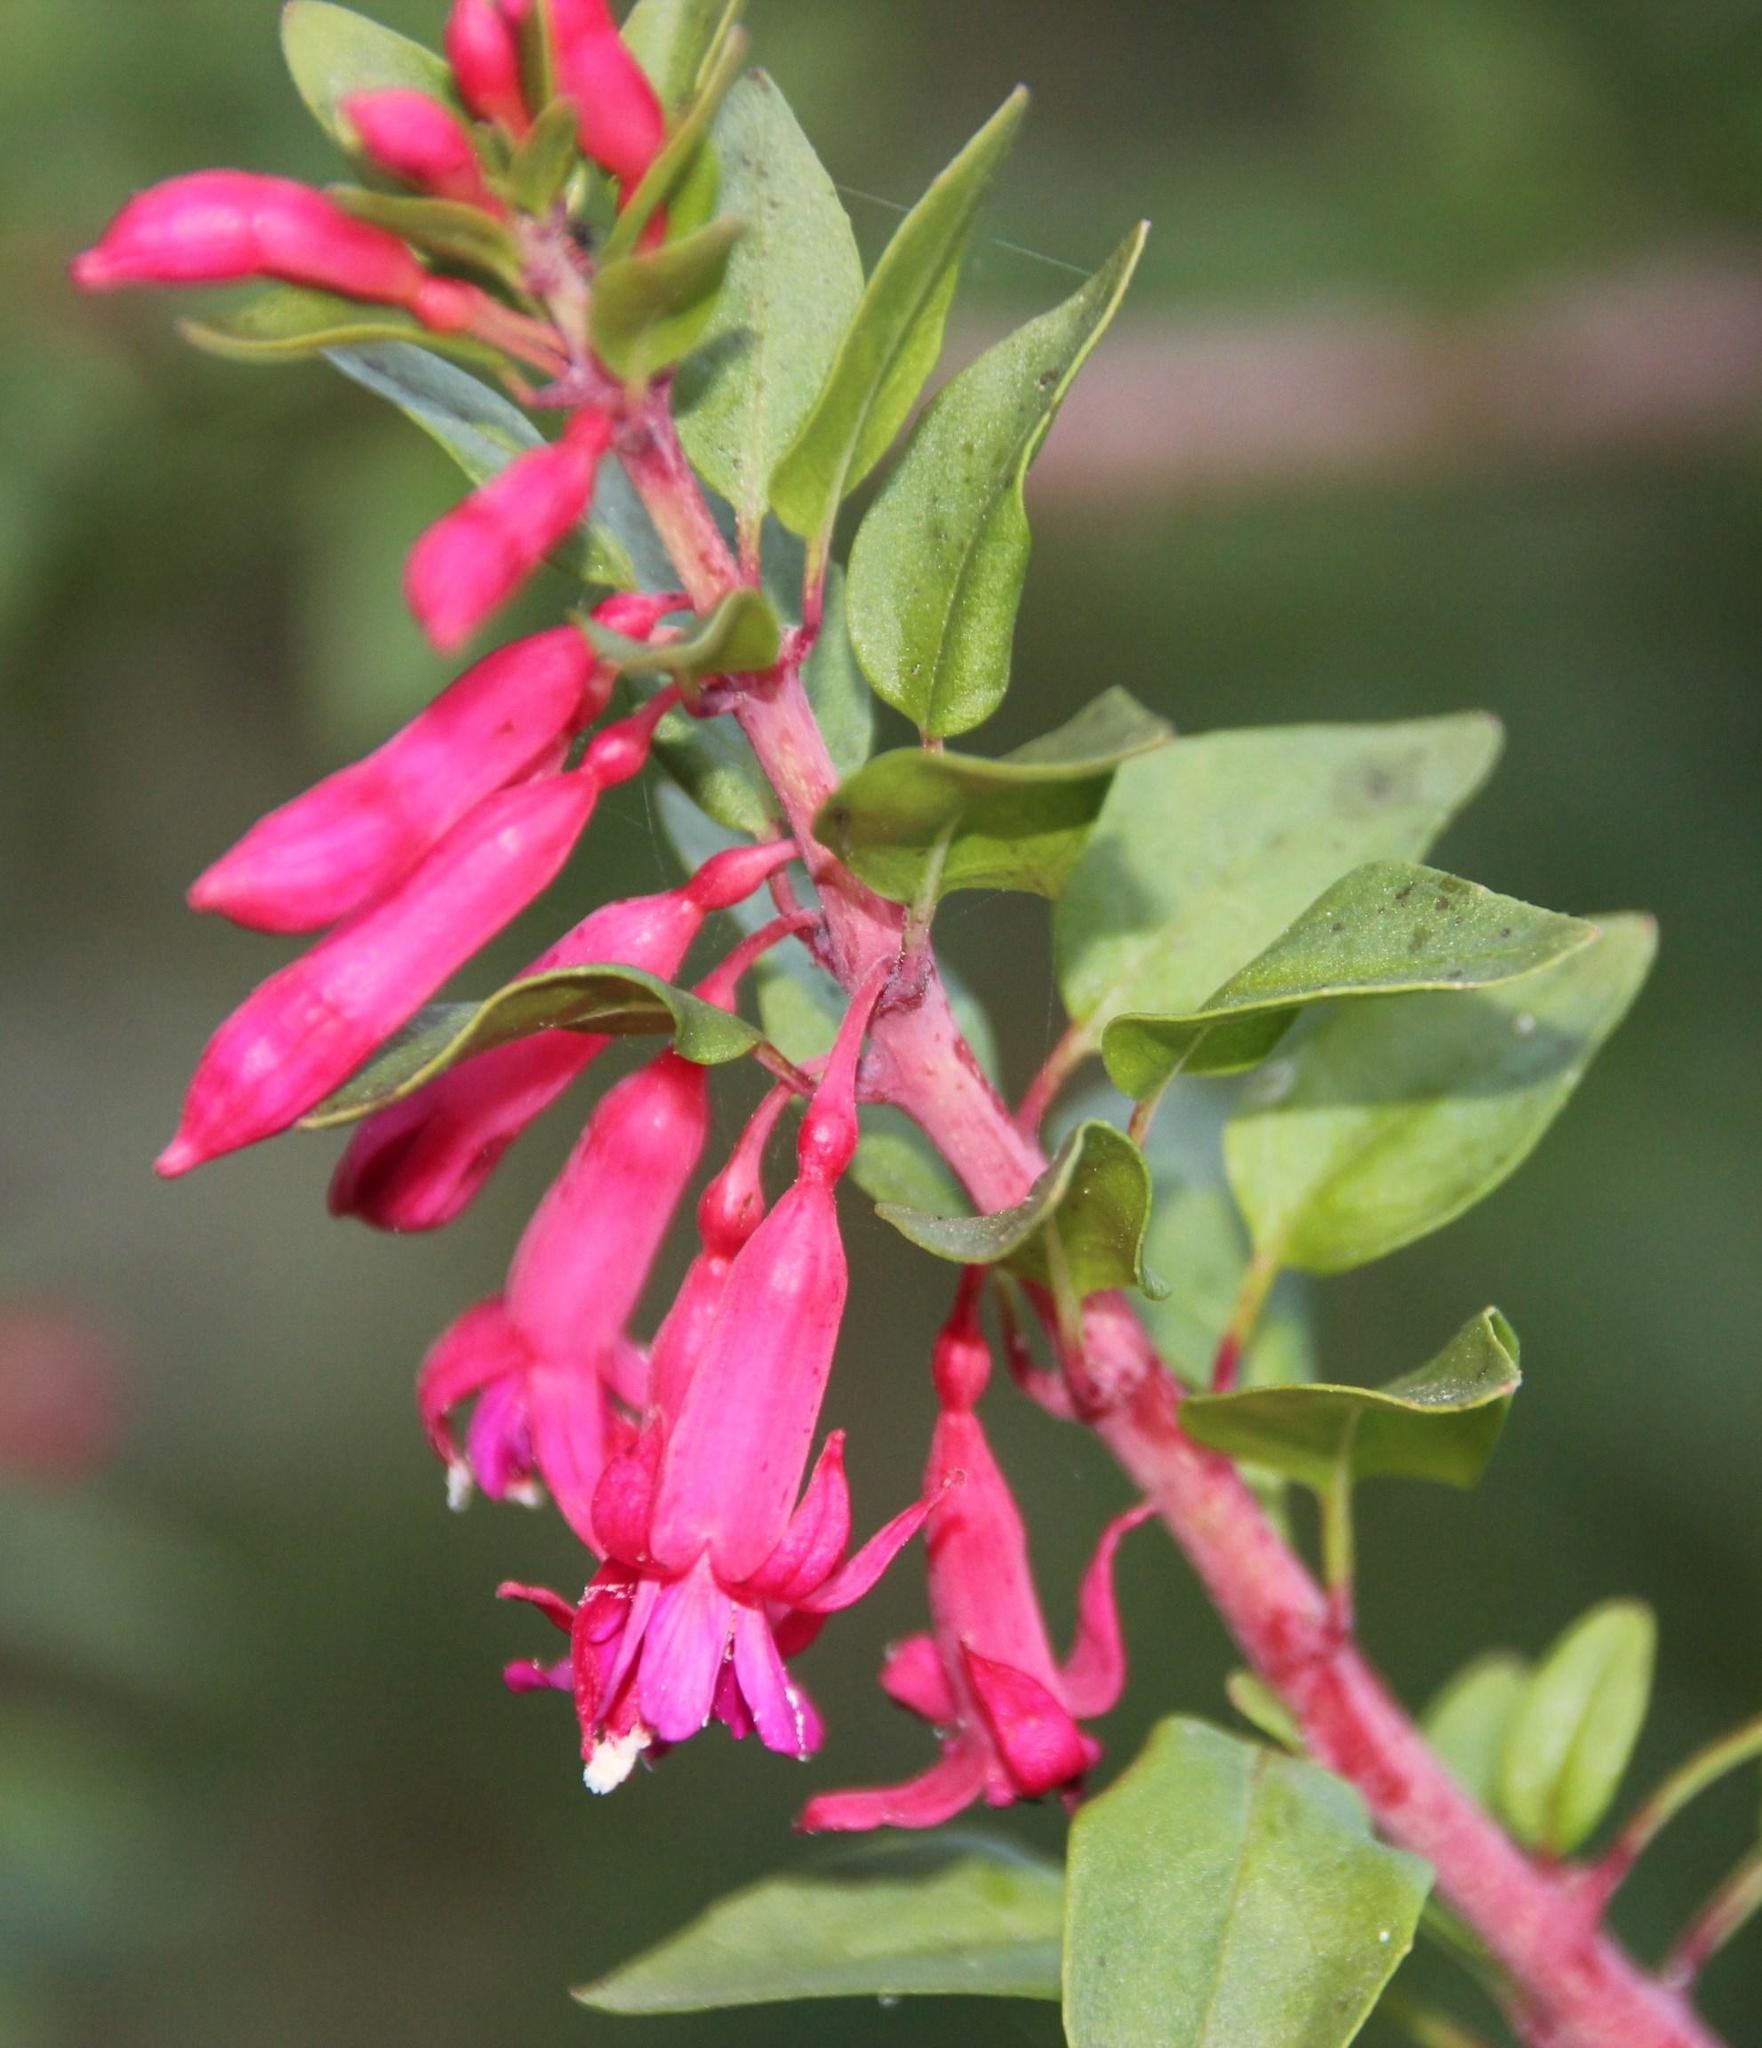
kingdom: Plantae
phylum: Tracheophyta
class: Magnoliopsida
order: Myrtales
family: Onagraceae
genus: Fuchsia
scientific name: Fuchsia lycioides
